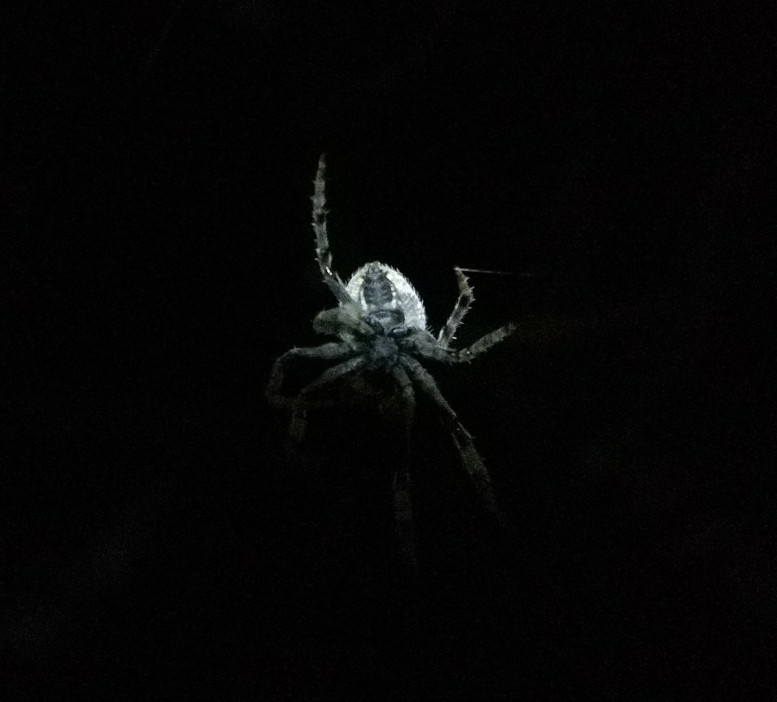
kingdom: Animalia
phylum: Arthropoda
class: Arachnida
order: Araneae
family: Araneidae
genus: Eriophora
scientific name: Eriophora pustulosa
